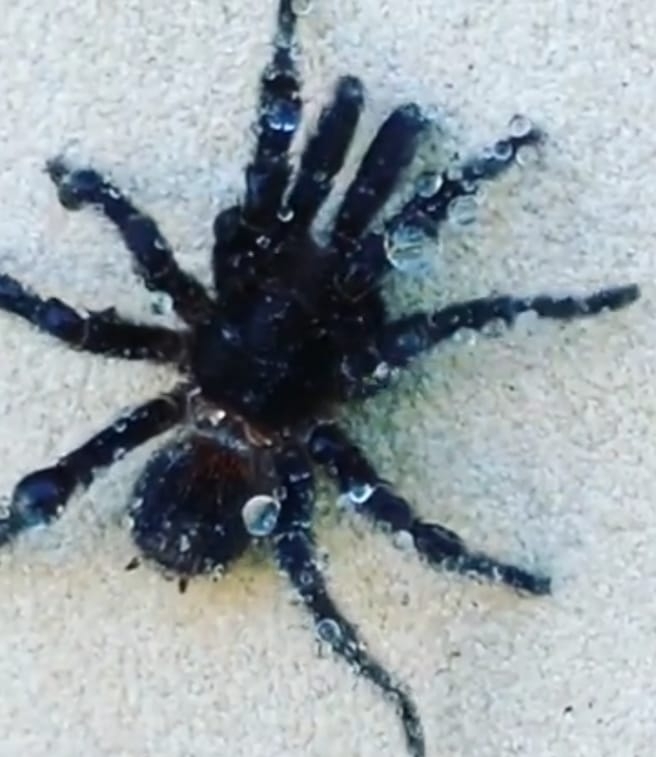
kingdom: Animalia
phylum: Arthropoda
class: Arachnida
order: Araneae
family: Theraphosidae
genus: Homoeomma
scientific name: Homoeomma uruguayense
